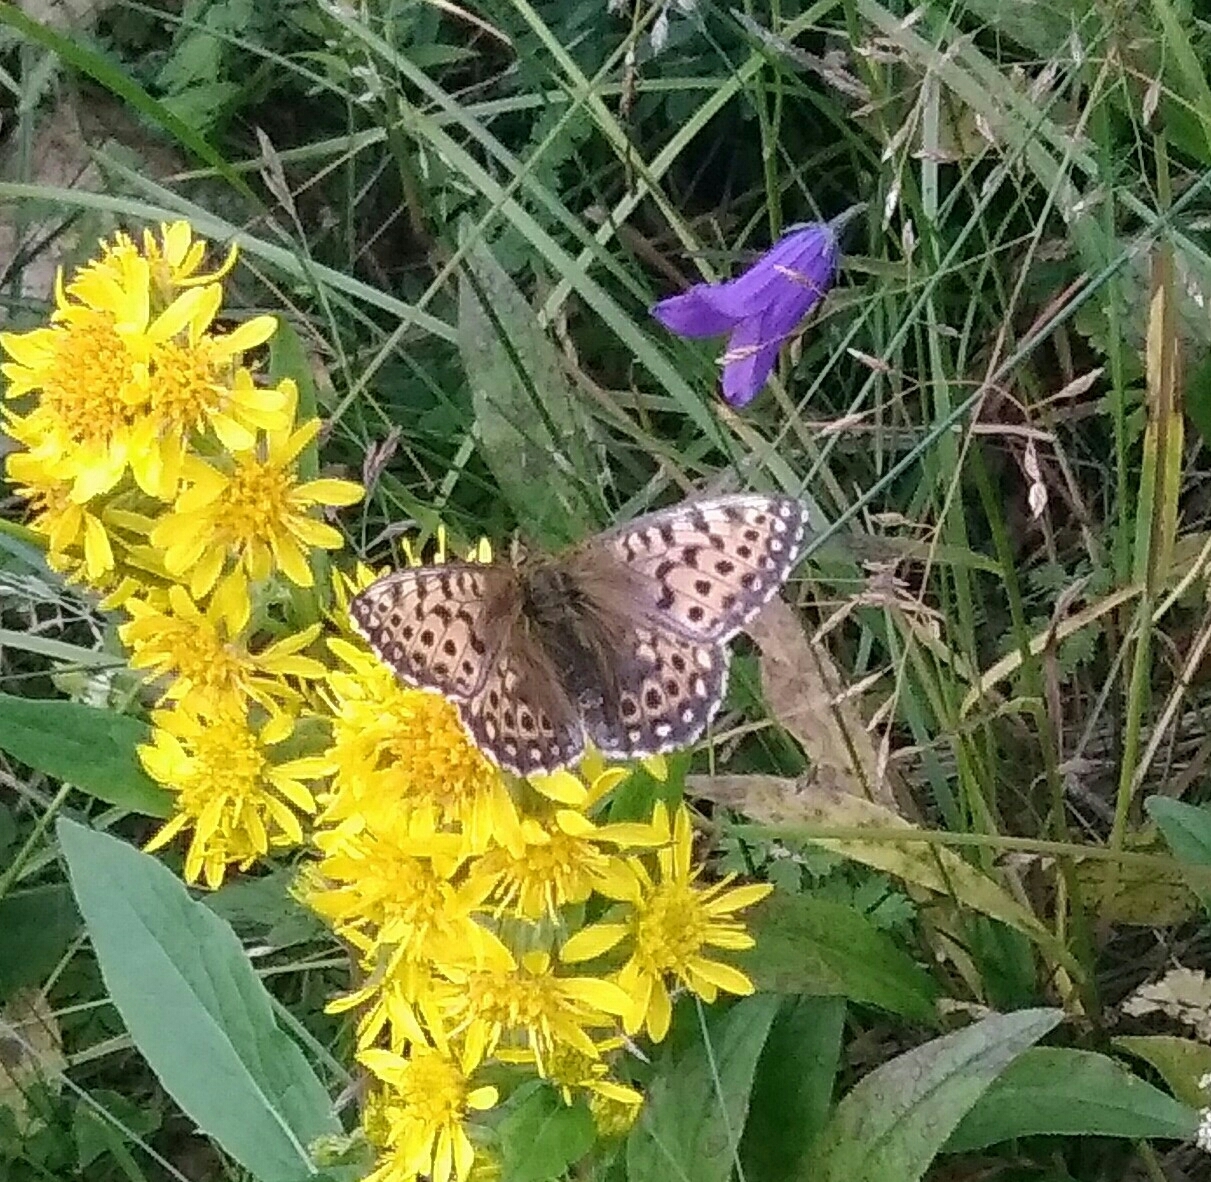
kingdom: Animalia
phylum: Arthropoda
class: Insecta
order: Lepidoptera
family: Nymphalidae
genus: Issoria
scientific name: Issoria eugenia
